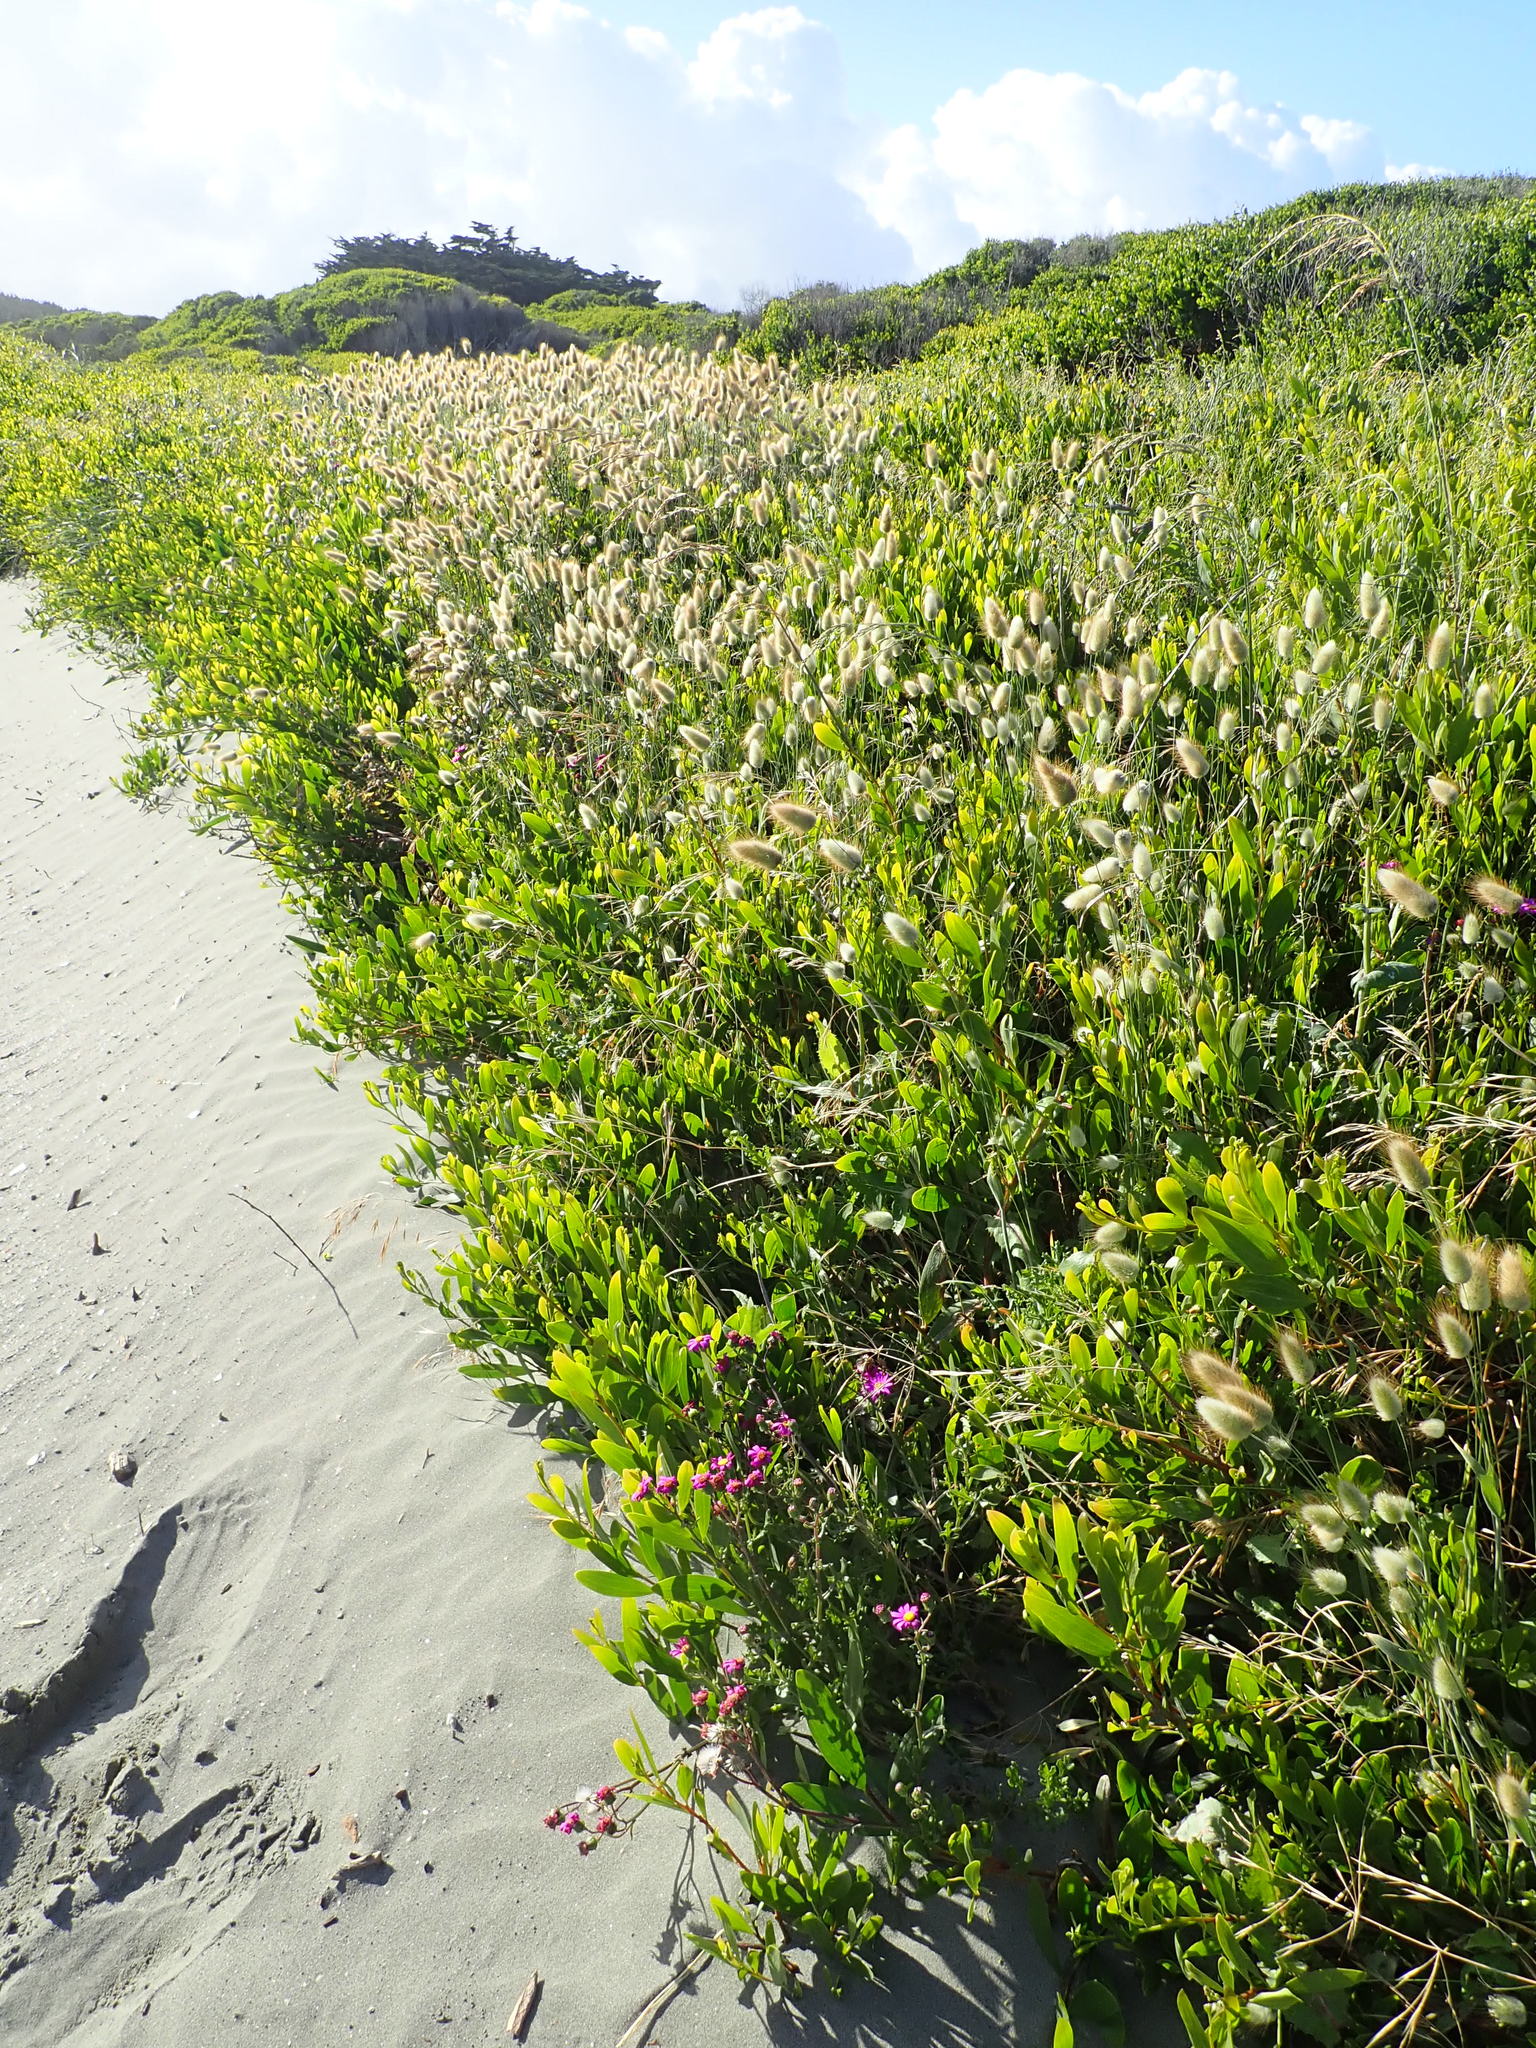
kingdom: Plantae
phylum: Tracheophyta
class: Magnoliopsida
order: Asterales
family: Asteraceae
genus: Senecio
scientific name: Senecio elegans
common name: Purple groundsel
